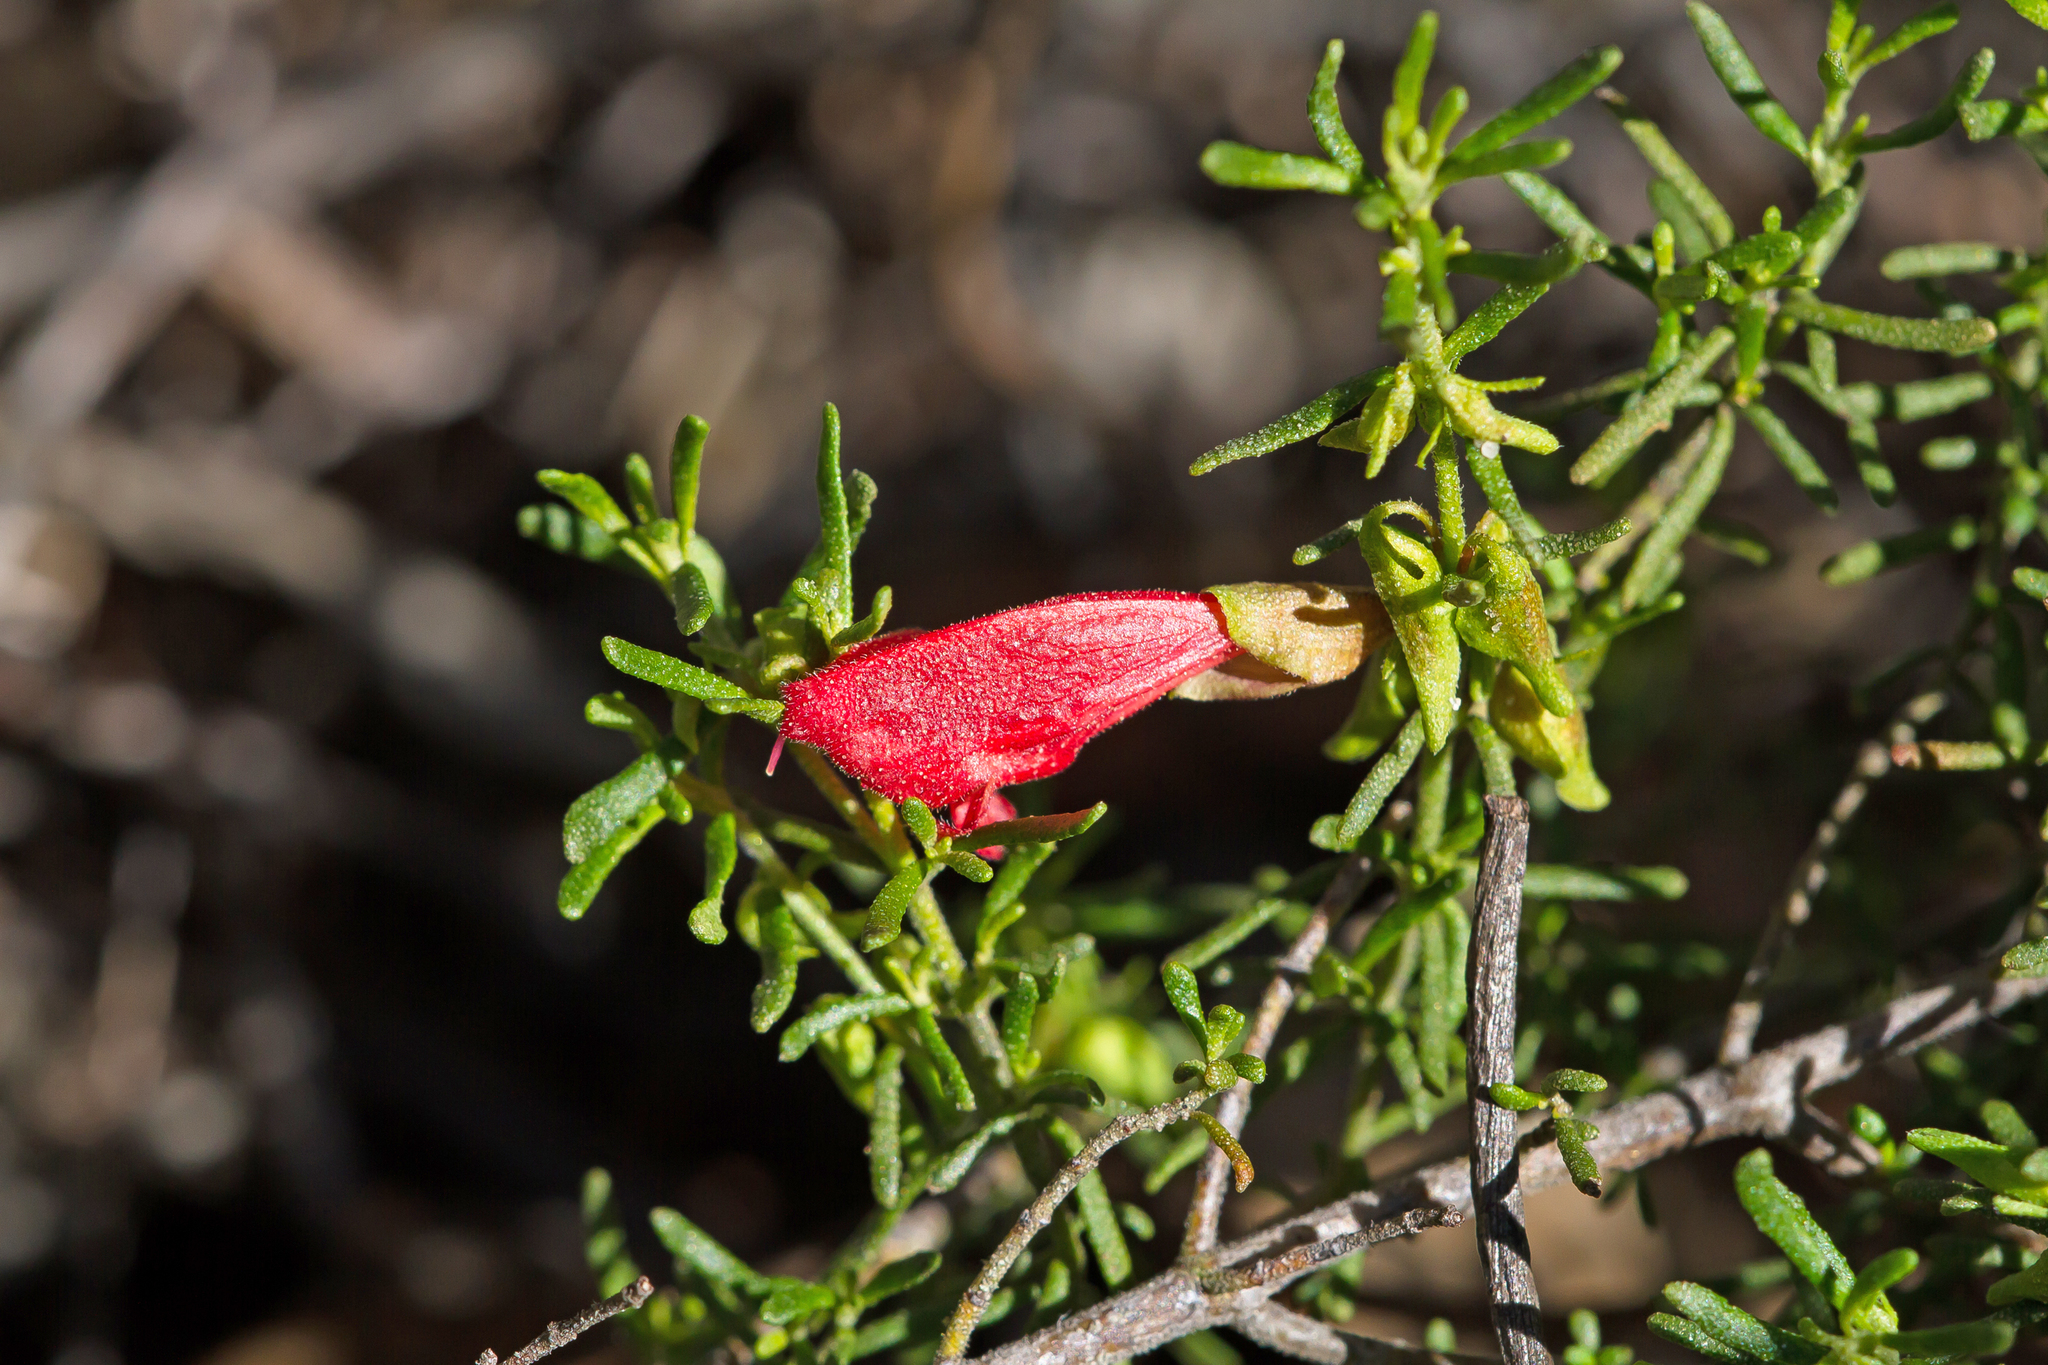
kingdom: Plantae
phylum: Tracheophyta
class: Magnoliopsida
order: Lamiales
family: Lamiaceae
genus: Prostanthera
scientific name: Prostanthera aspalathoides
